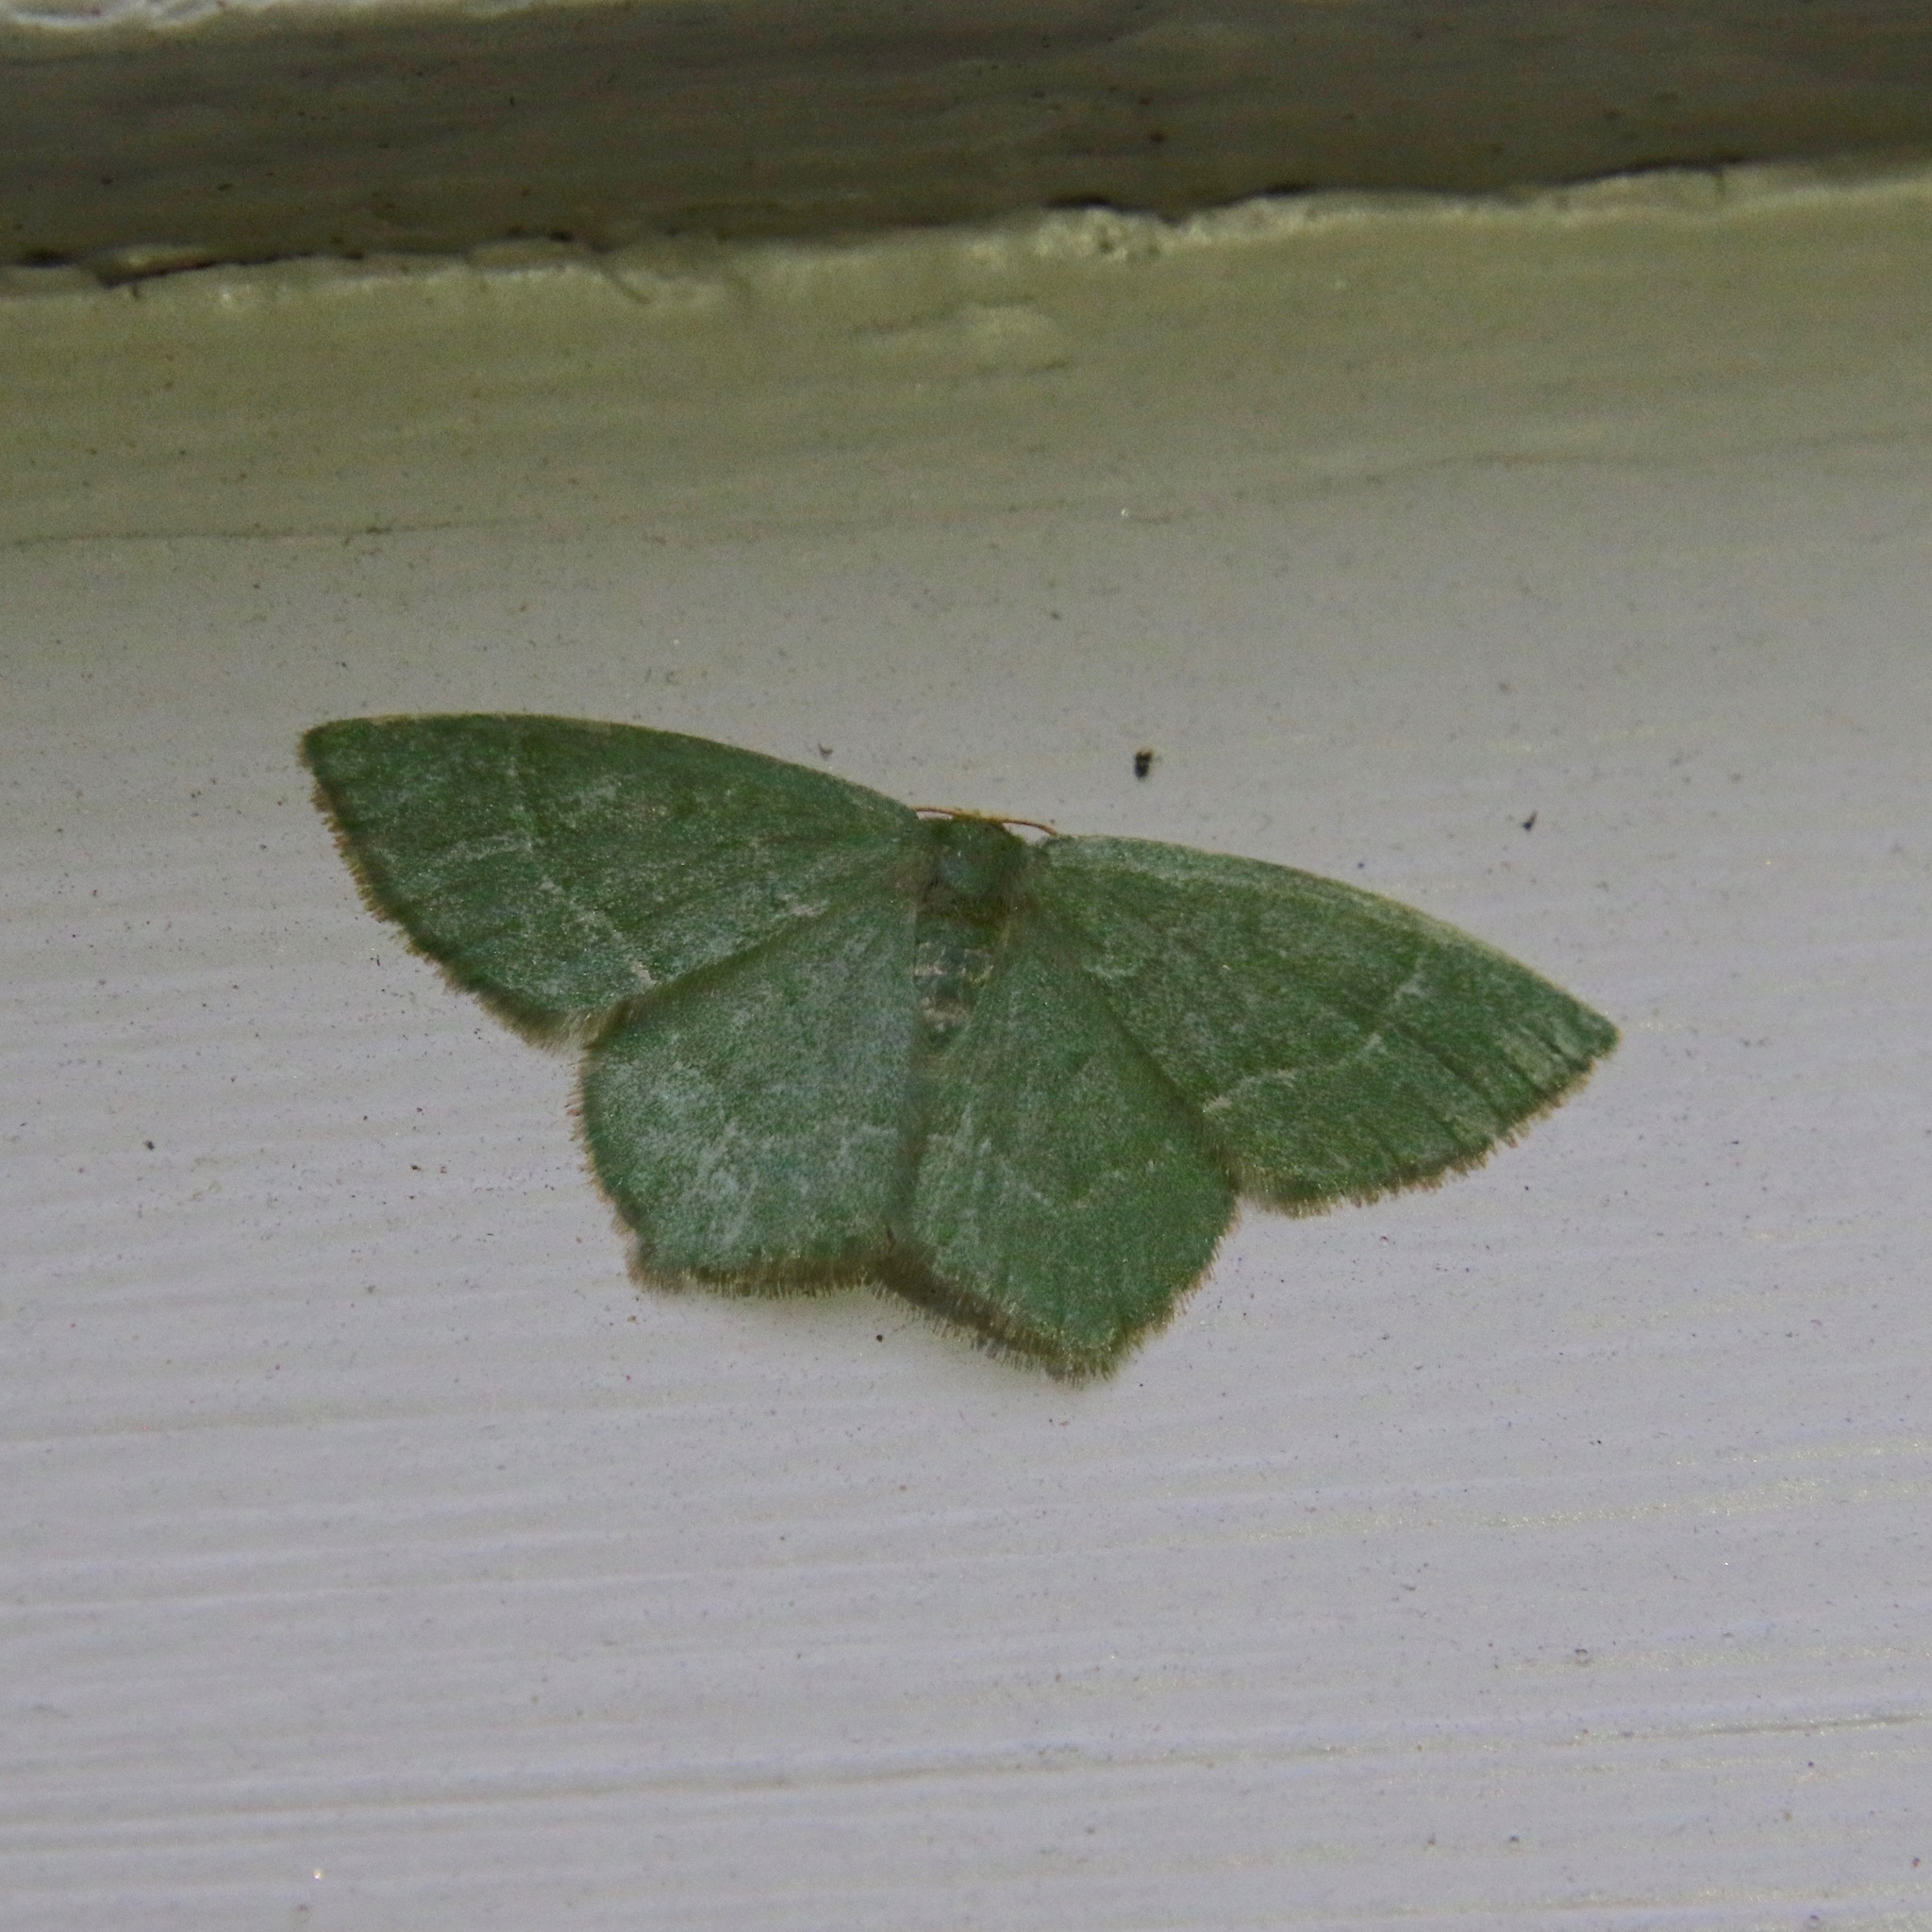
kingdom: Animalia
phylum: Arthropoda
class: Insecta
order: Lepidoptera
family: Geometridae
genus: Thalera
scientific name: Thalera pistasciaria
